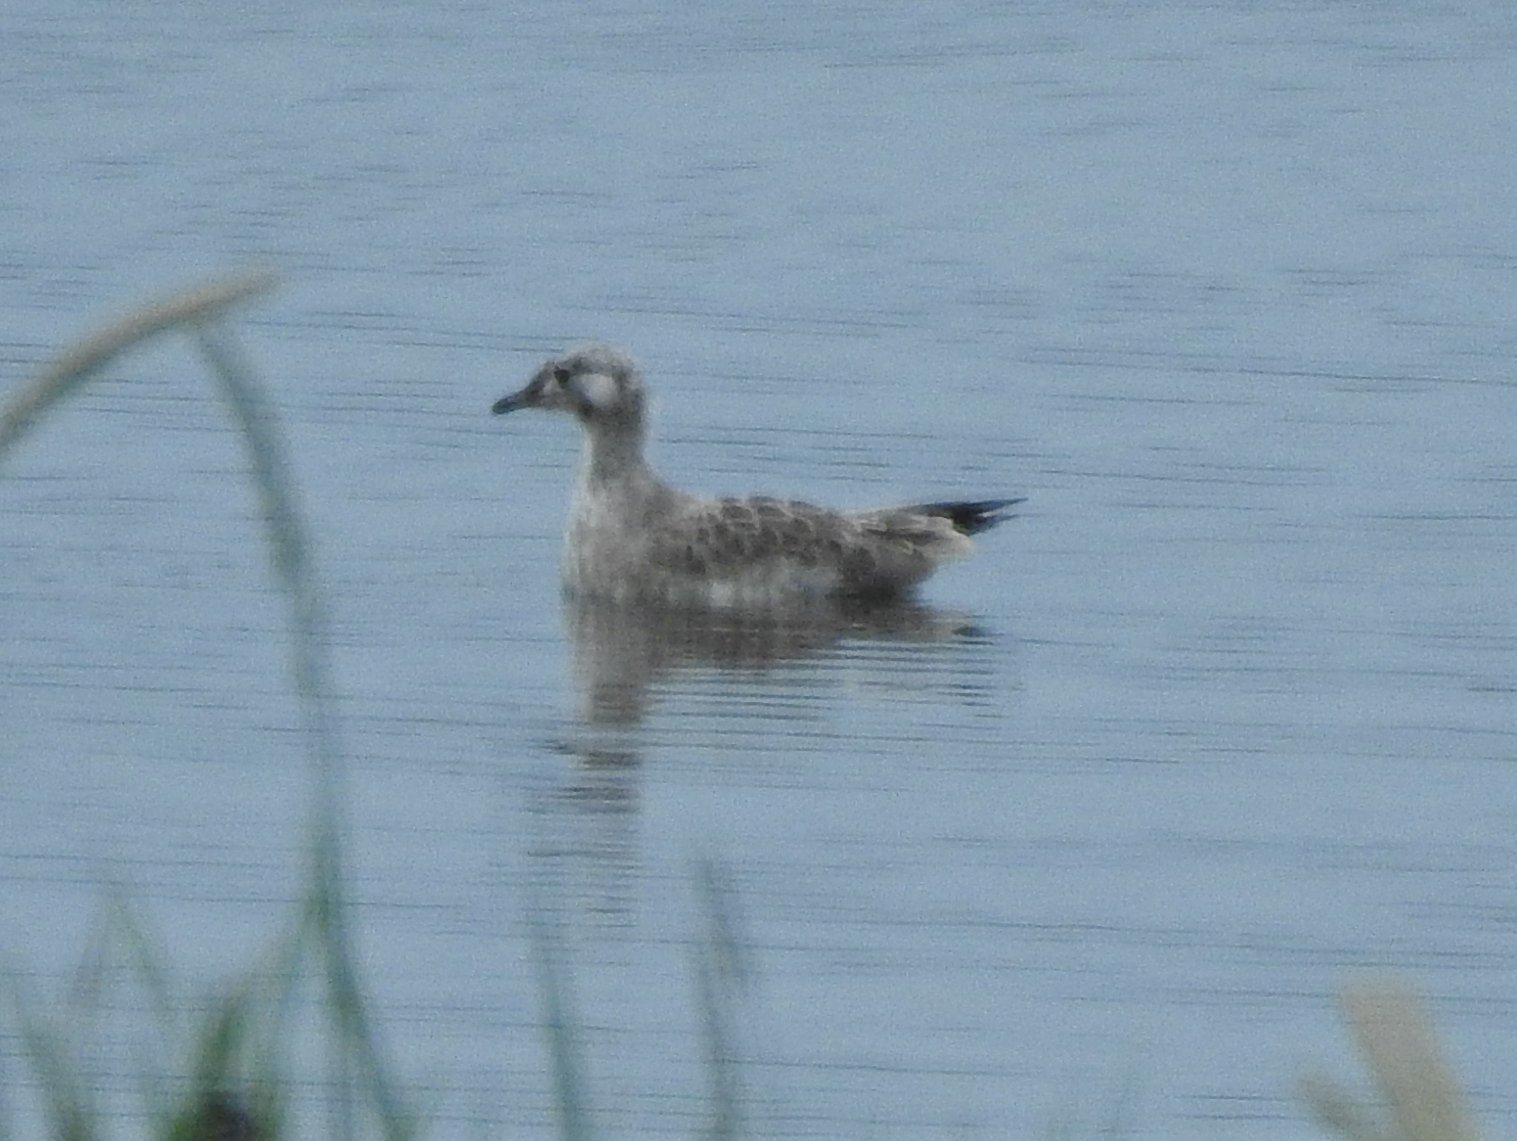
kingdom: Animalia
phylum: Chordata
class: Aves
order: Charadriiformes
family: Laridae
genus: Chroicocephalus
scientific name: Chroicocephalus ridibundus
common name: Black-headed gull
